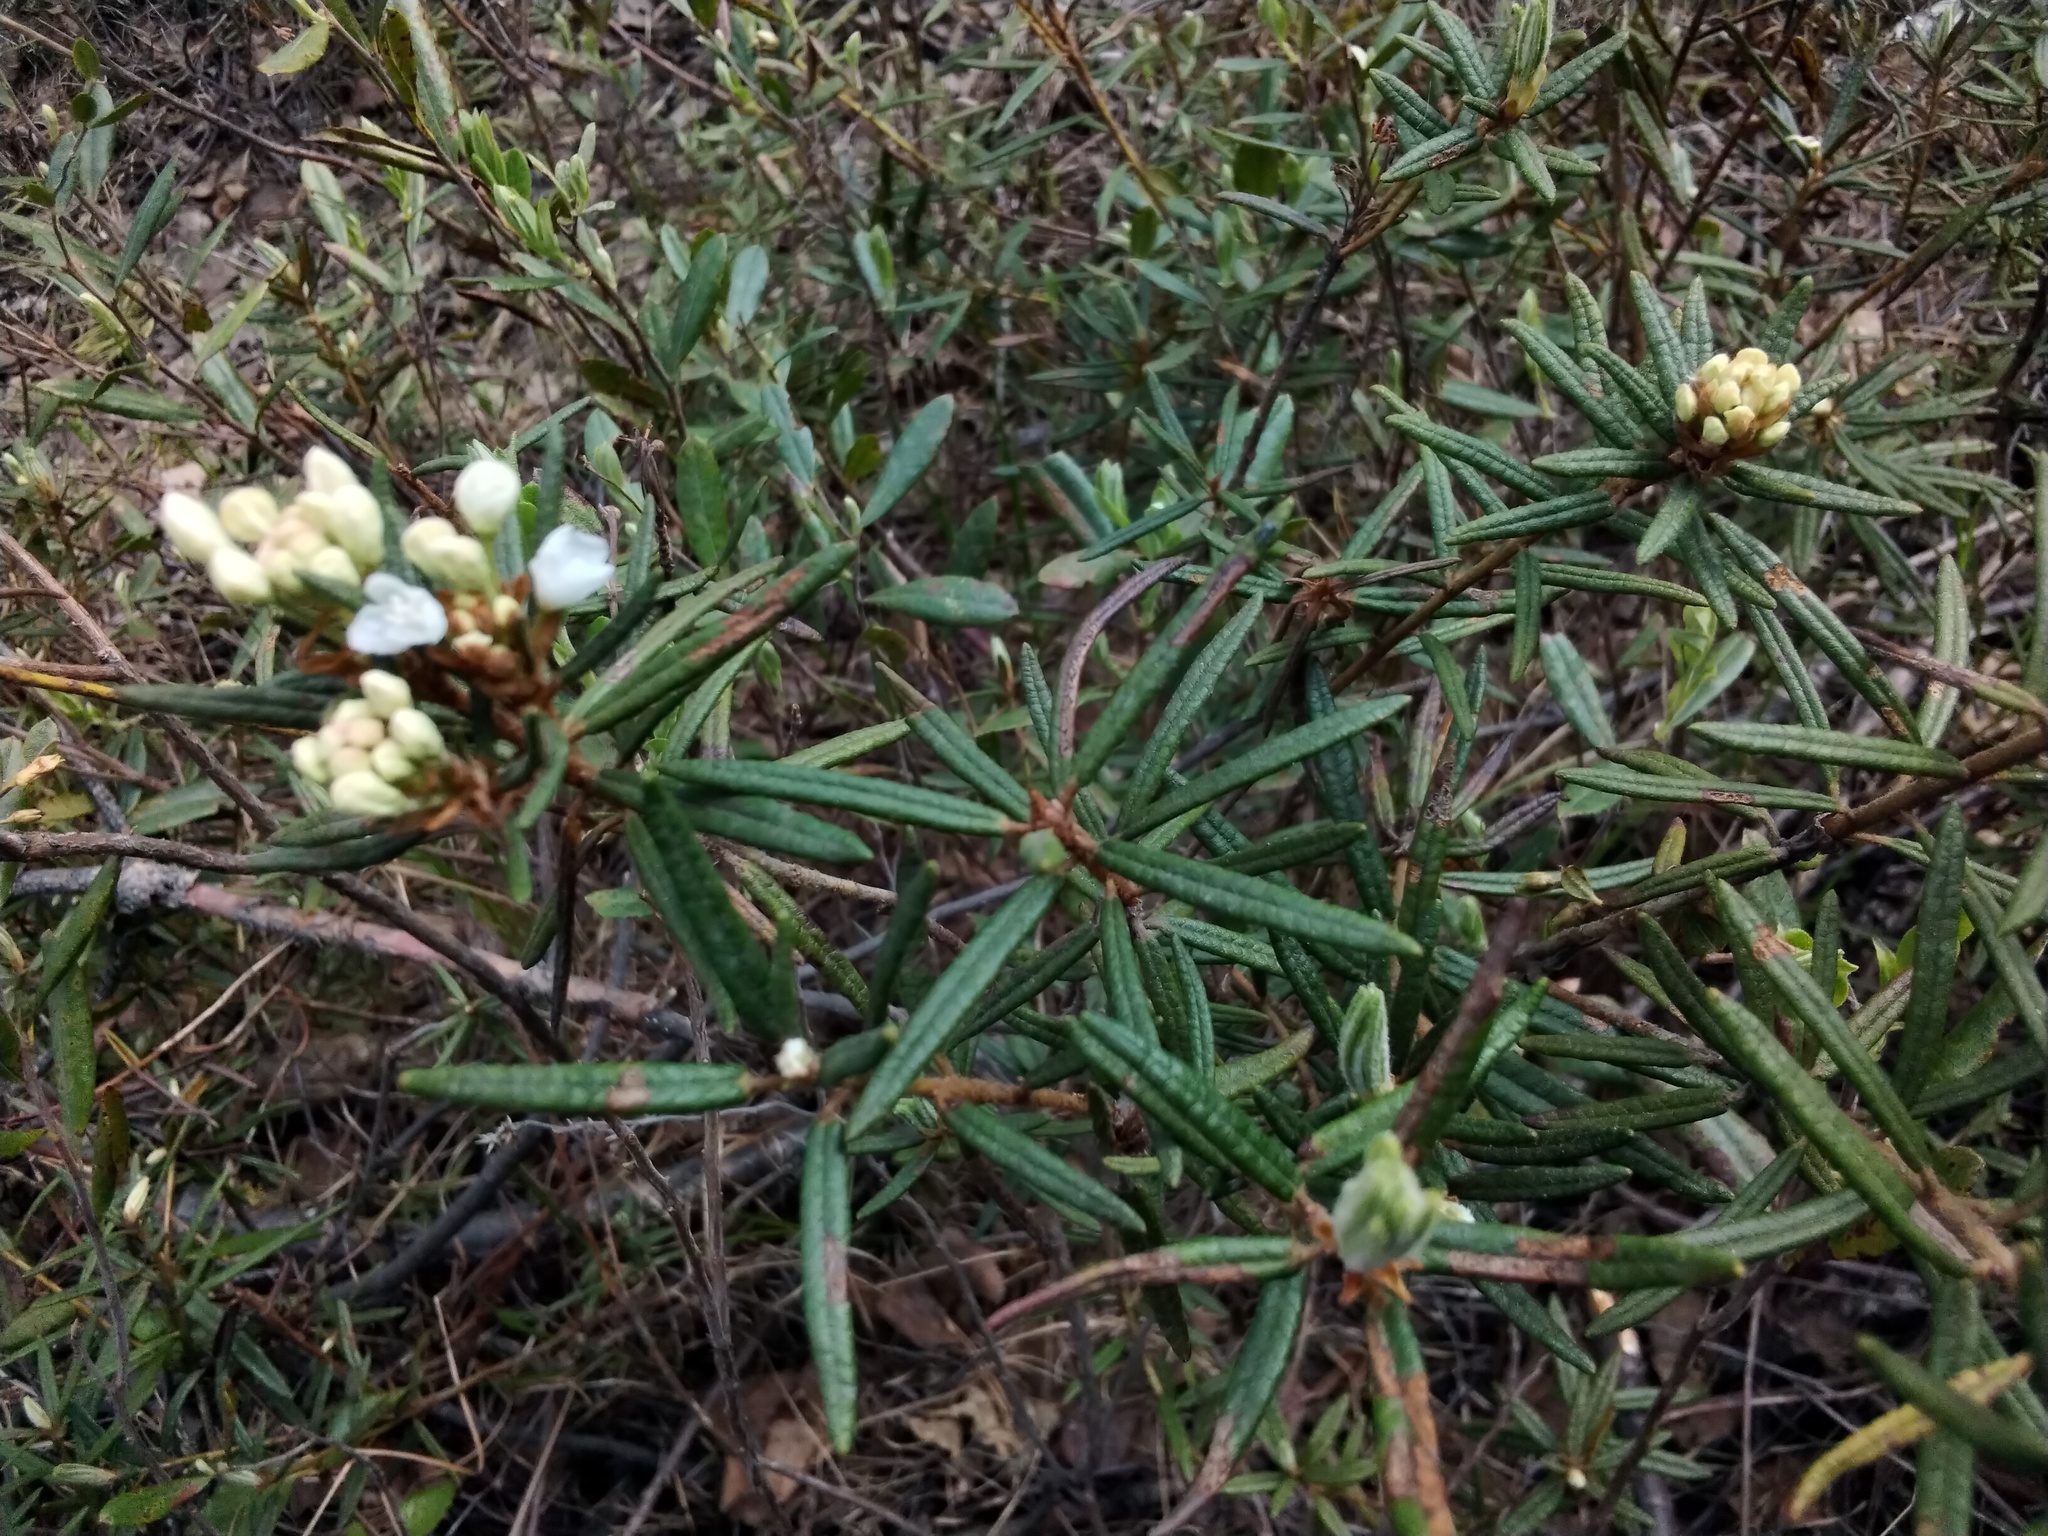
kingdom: Plantae
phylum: Tracheophyta
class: Magnoliopsida
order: Ericales
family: Ericaceae
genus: Rhododendron
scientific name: Rhododendron tomentosum
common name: Marsh labrador tea
